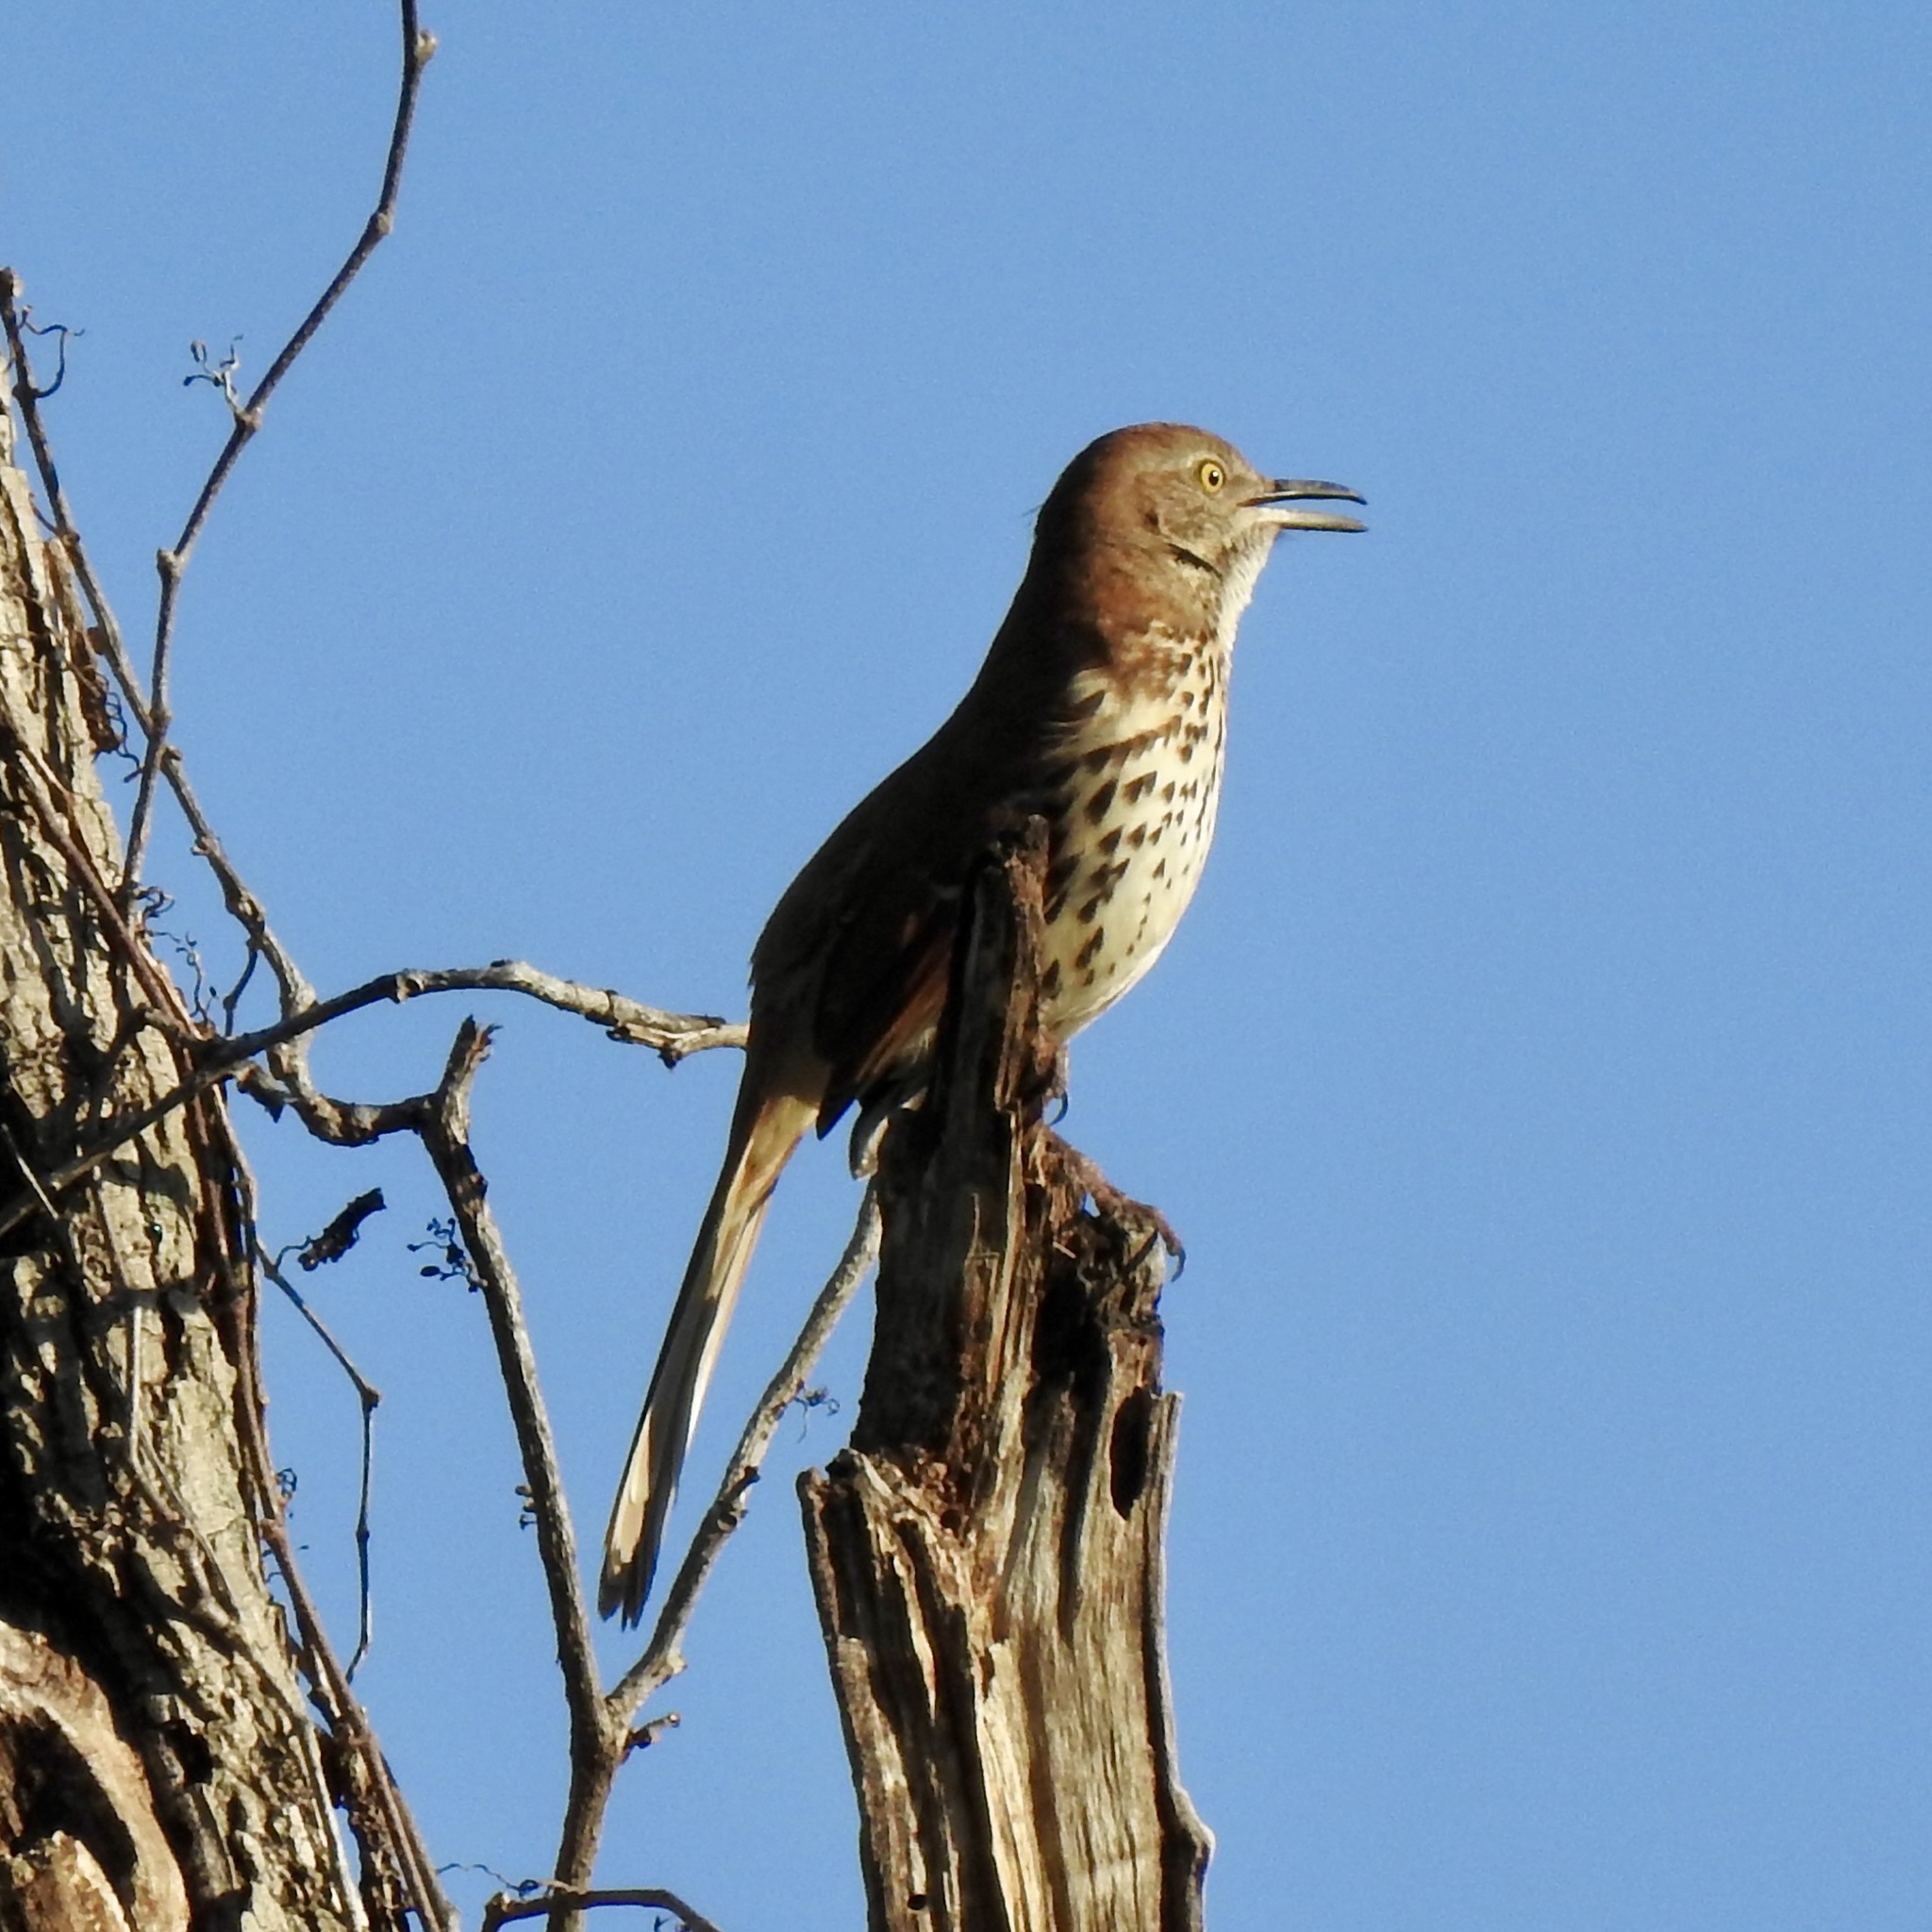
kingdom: Animalia
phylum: Chordata
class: Aves
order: Passeriformes
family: Mimidae
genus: Toxostoma
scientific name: Toxostoma rufum
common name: Brown thrasher
